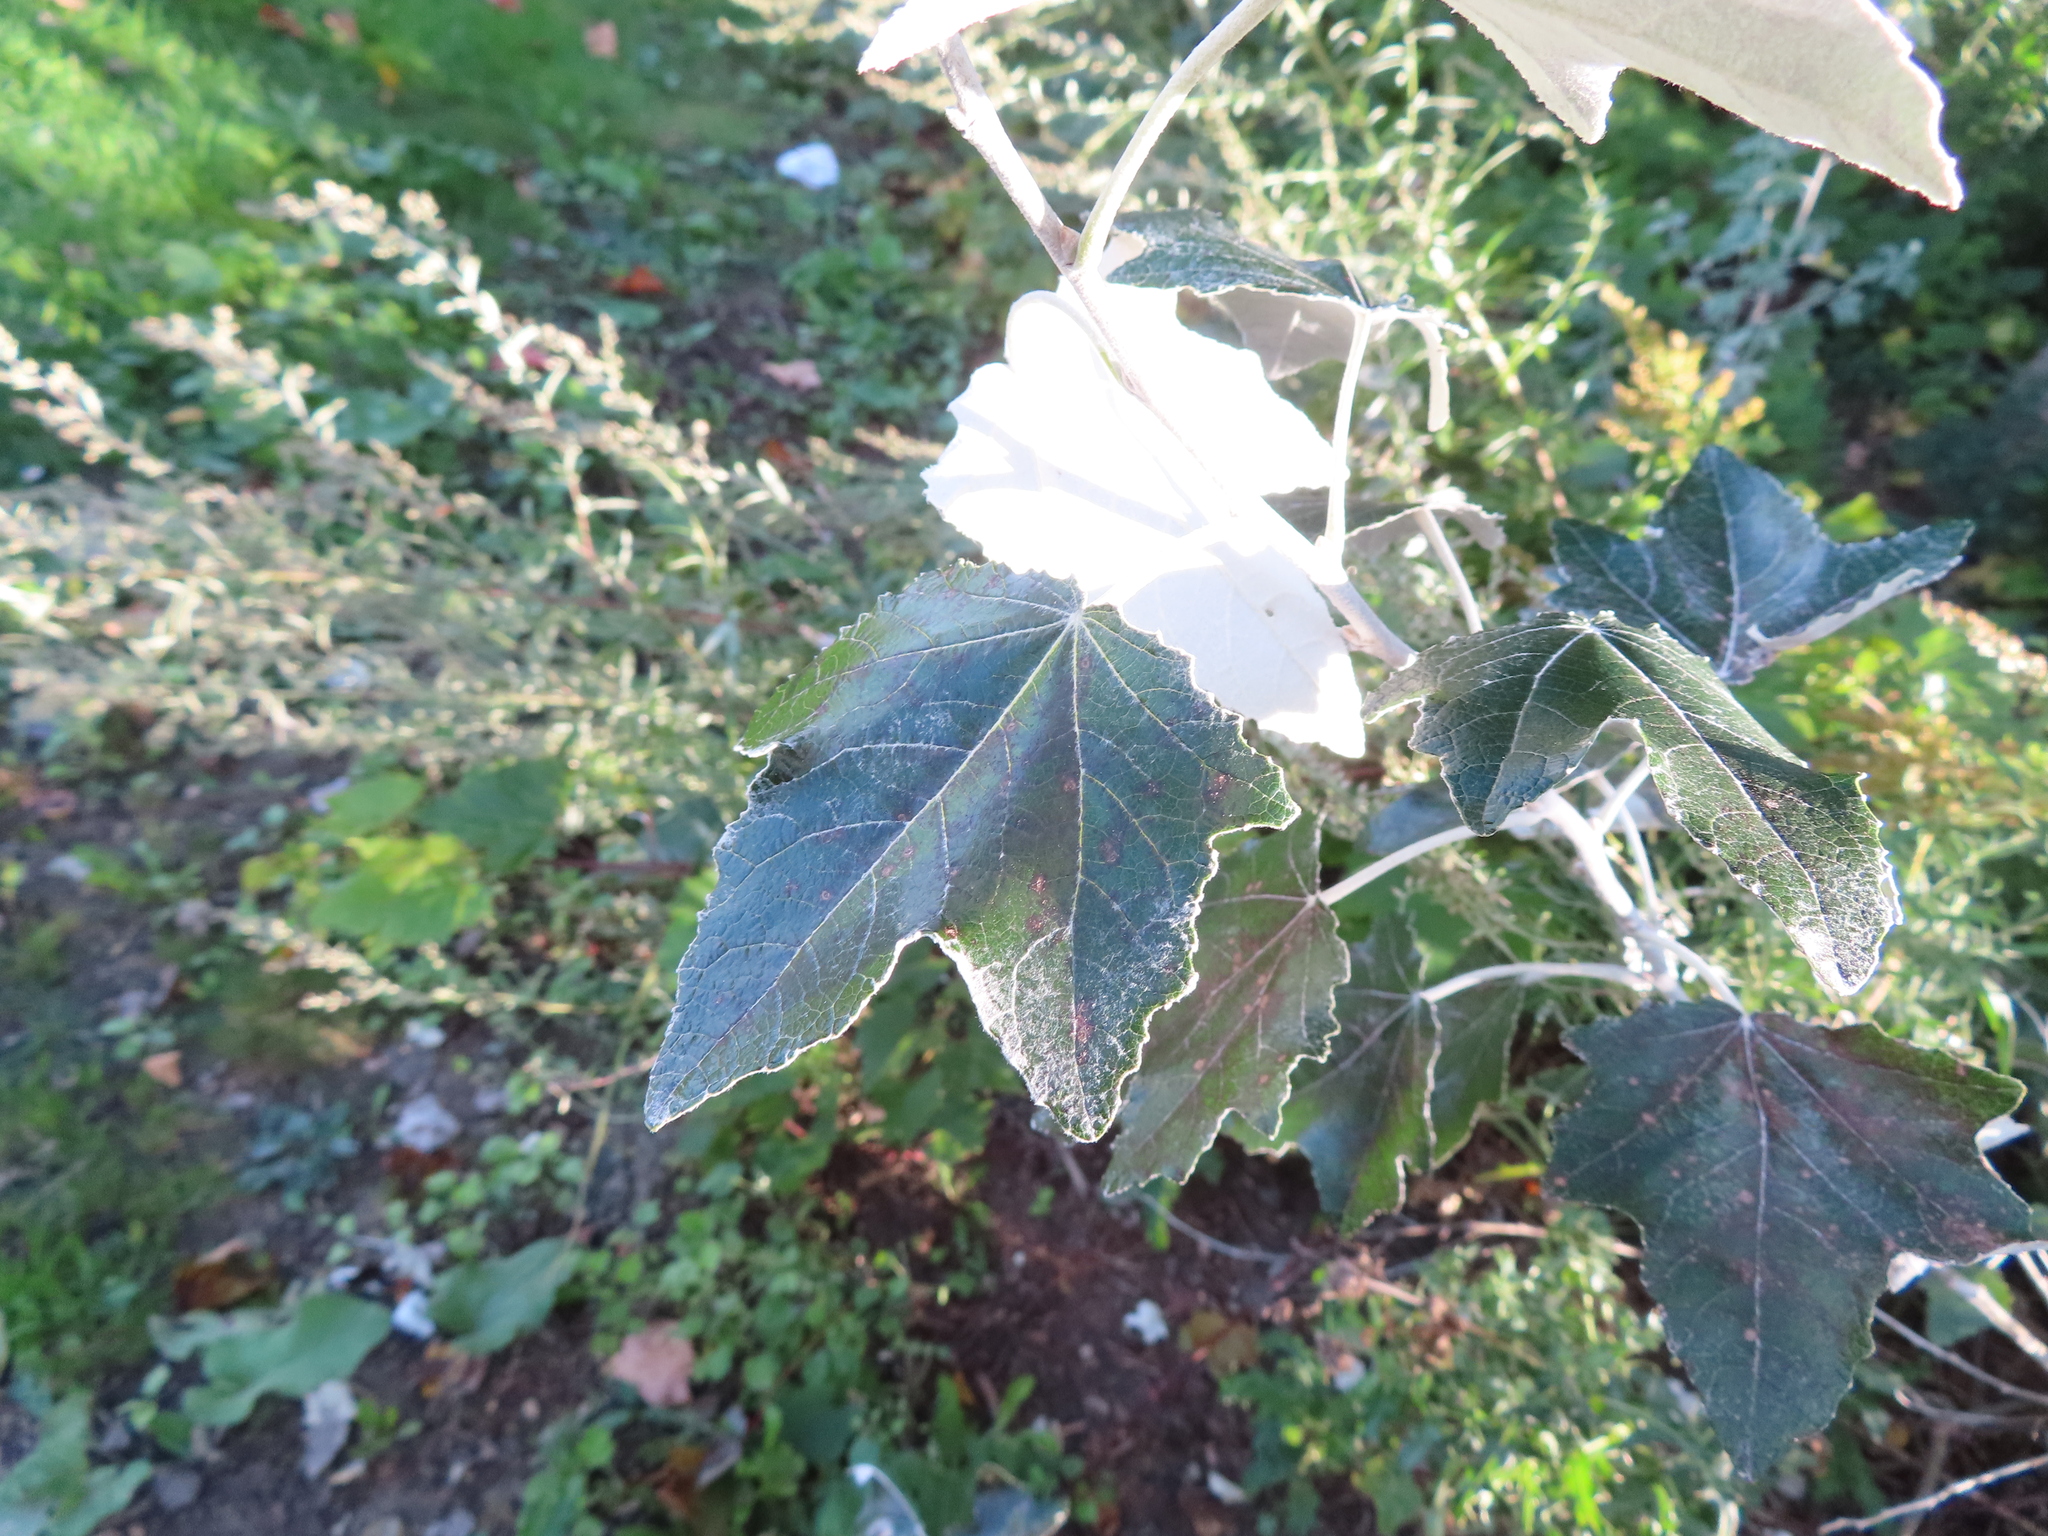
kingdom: Plantae
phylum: Tracheophyta
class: Magnoliopsida
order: Malpighiales
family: Salicaceae
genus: Populus
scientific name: Populus alba
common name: White poplar
